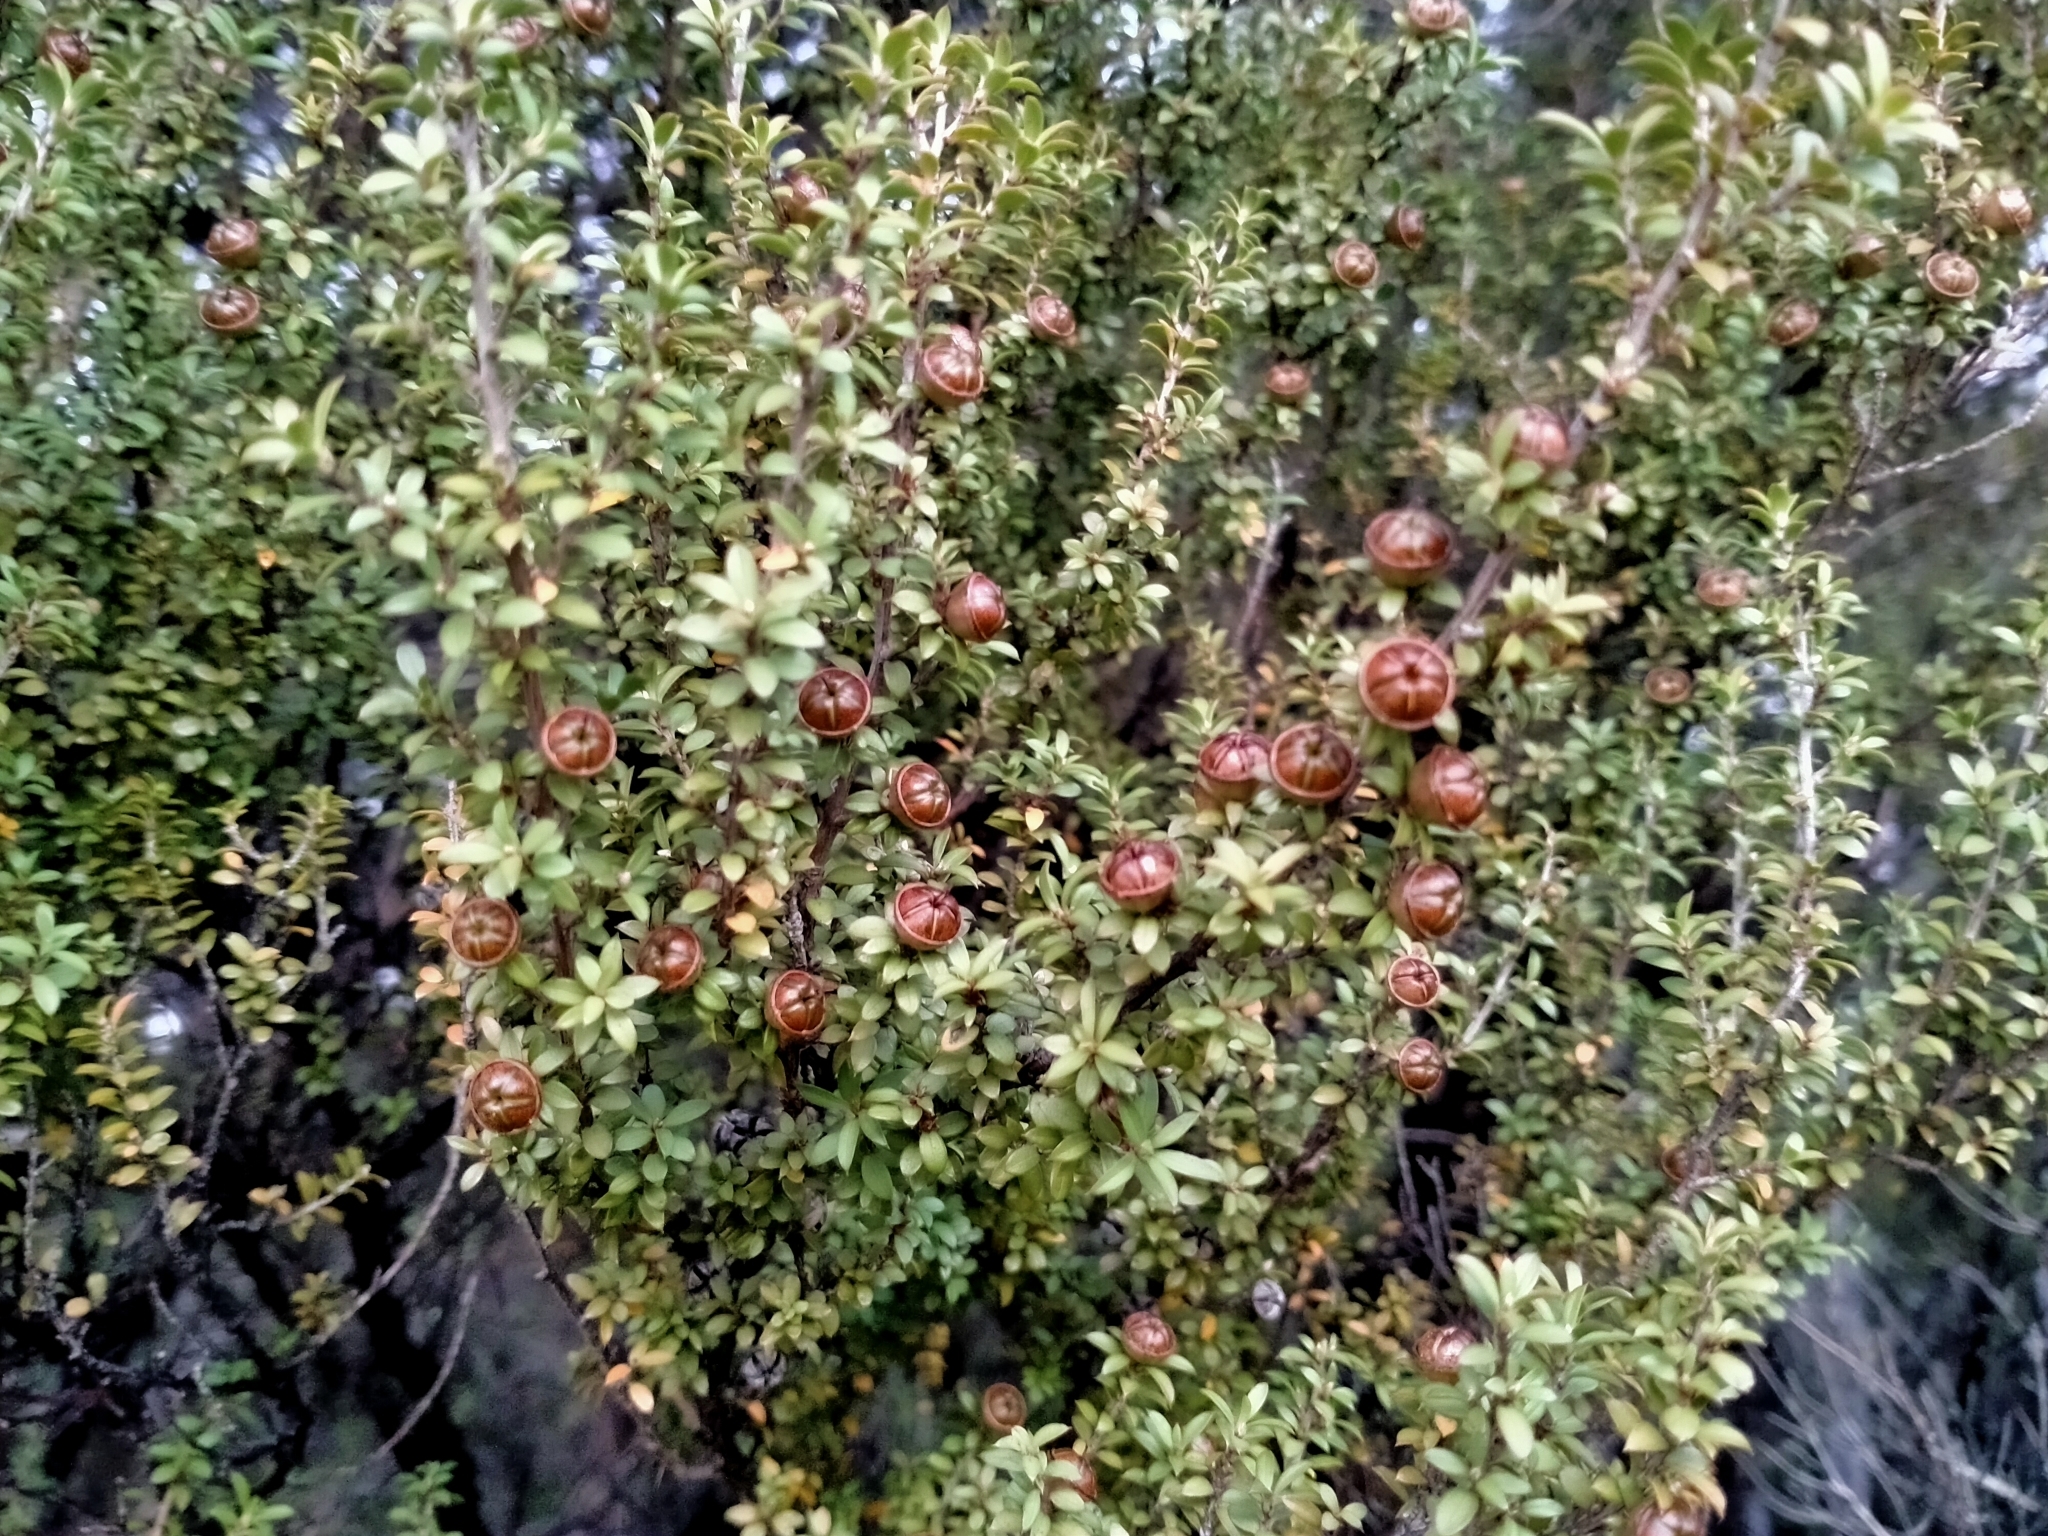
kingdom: Plantae
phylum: Tracheophyta
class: Magnoliopsida
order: Myrtales
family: Myrtaceae
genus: Leptospermum
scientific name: Leptospermum scoparium
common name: Broom tea-tree
